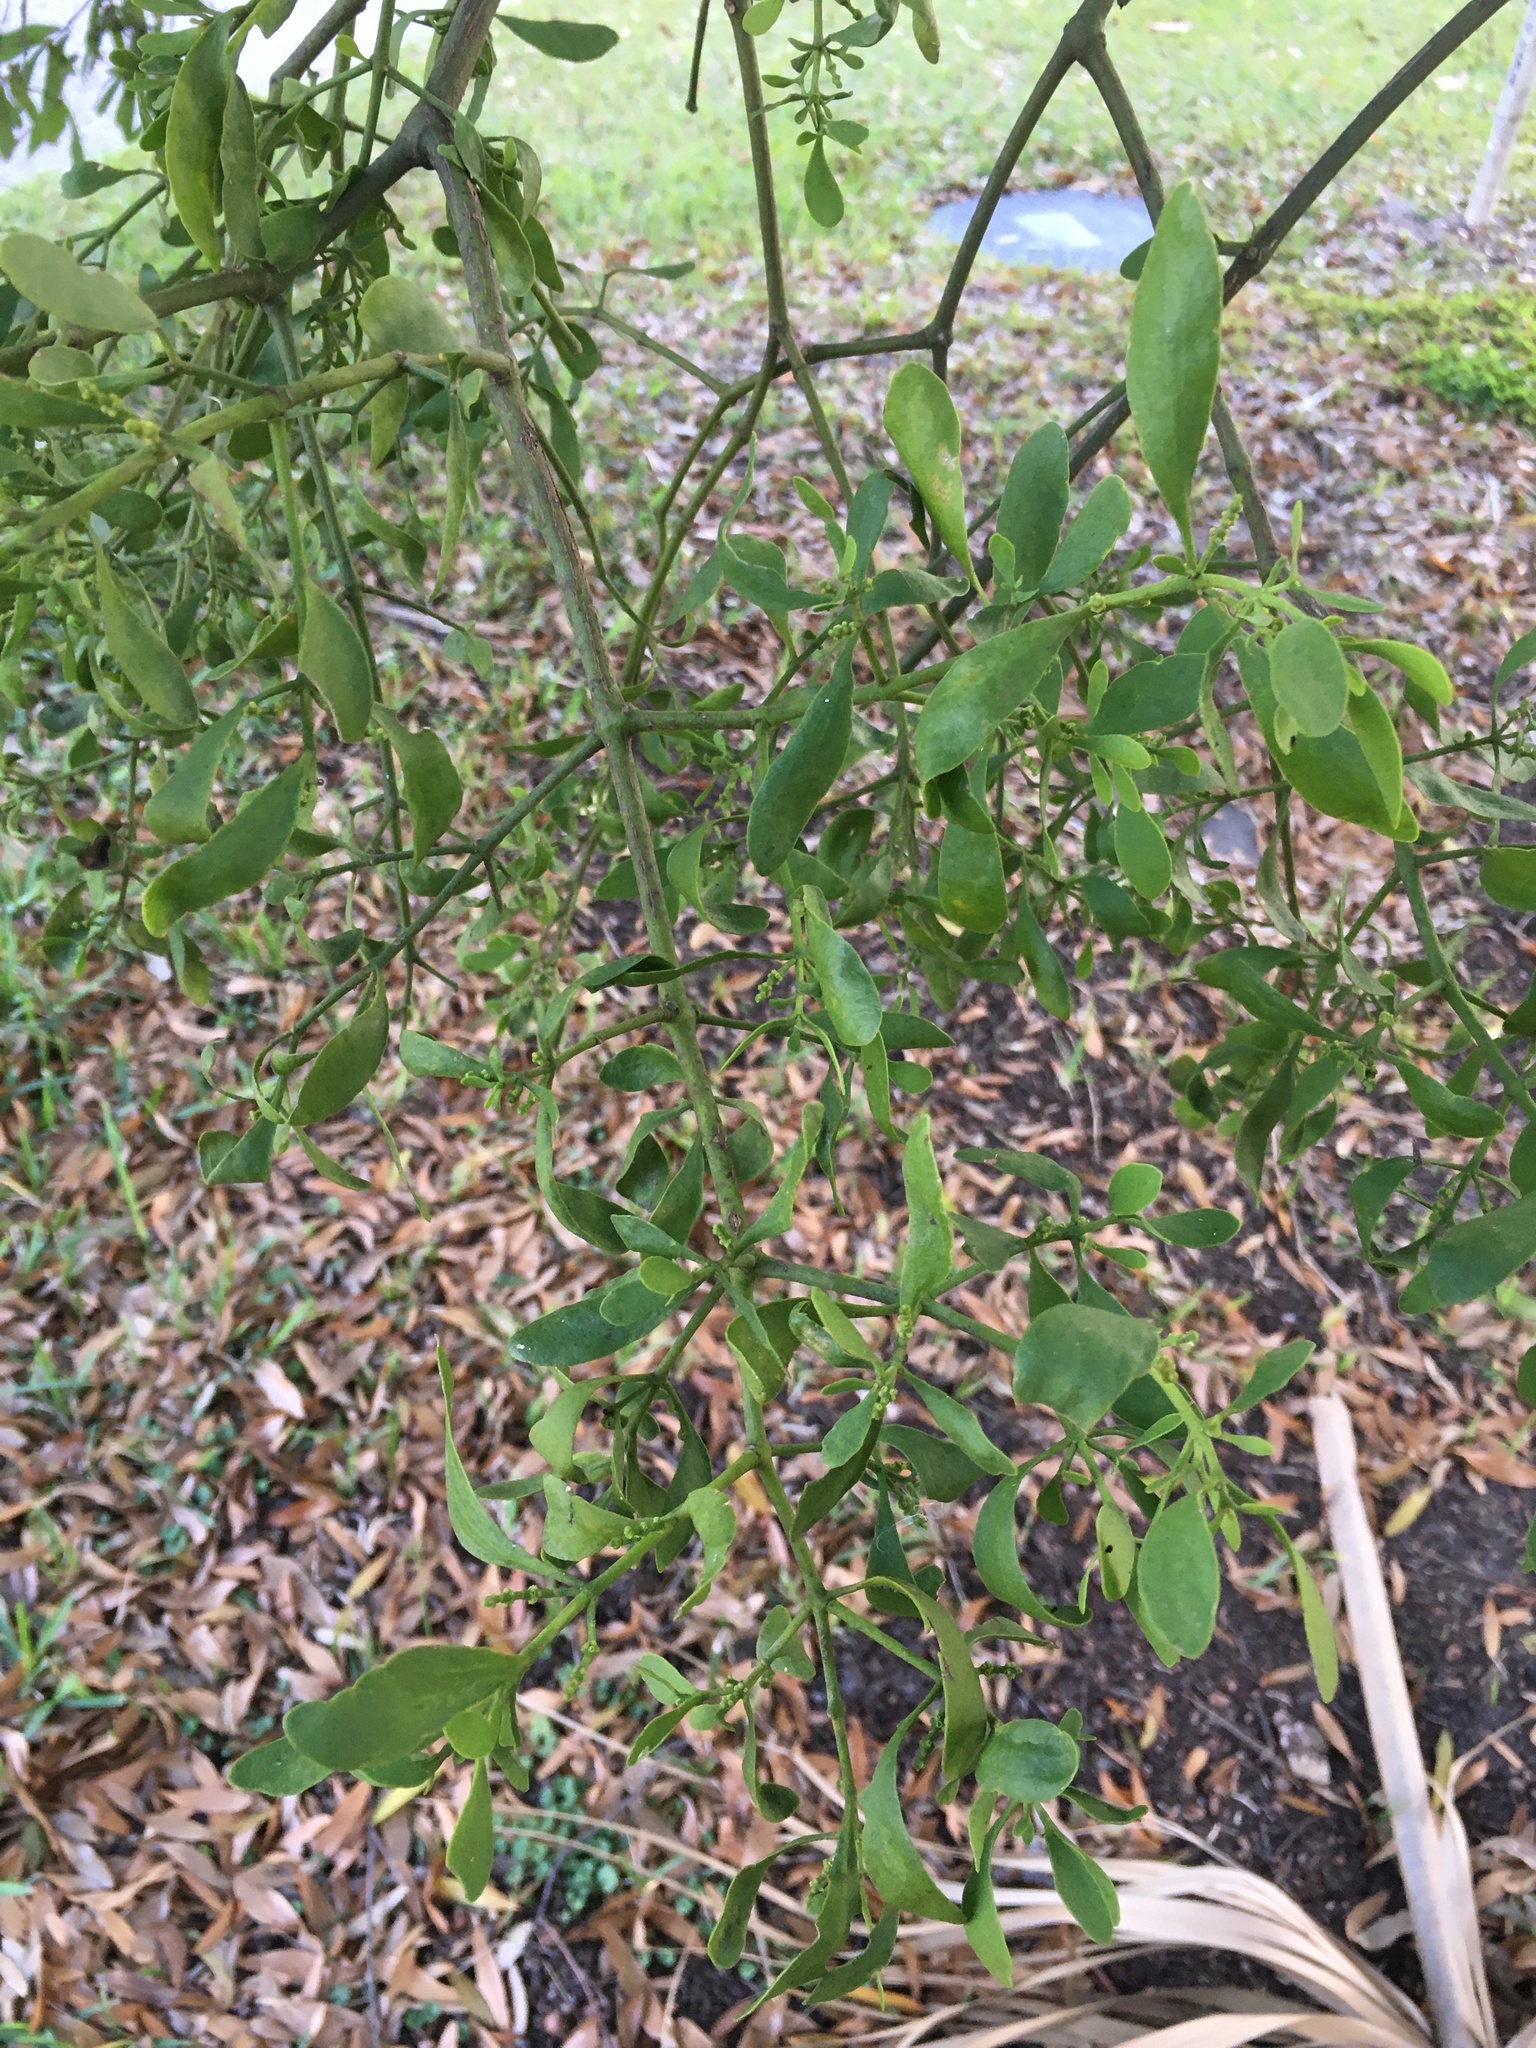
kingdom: Plantae
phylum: Tracheophyta
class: Magnoliopsida
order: Santalales
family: Viscaceae
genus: Phoradendron
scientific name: Phoradendron leucarpum
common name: Pacific mistletoe
